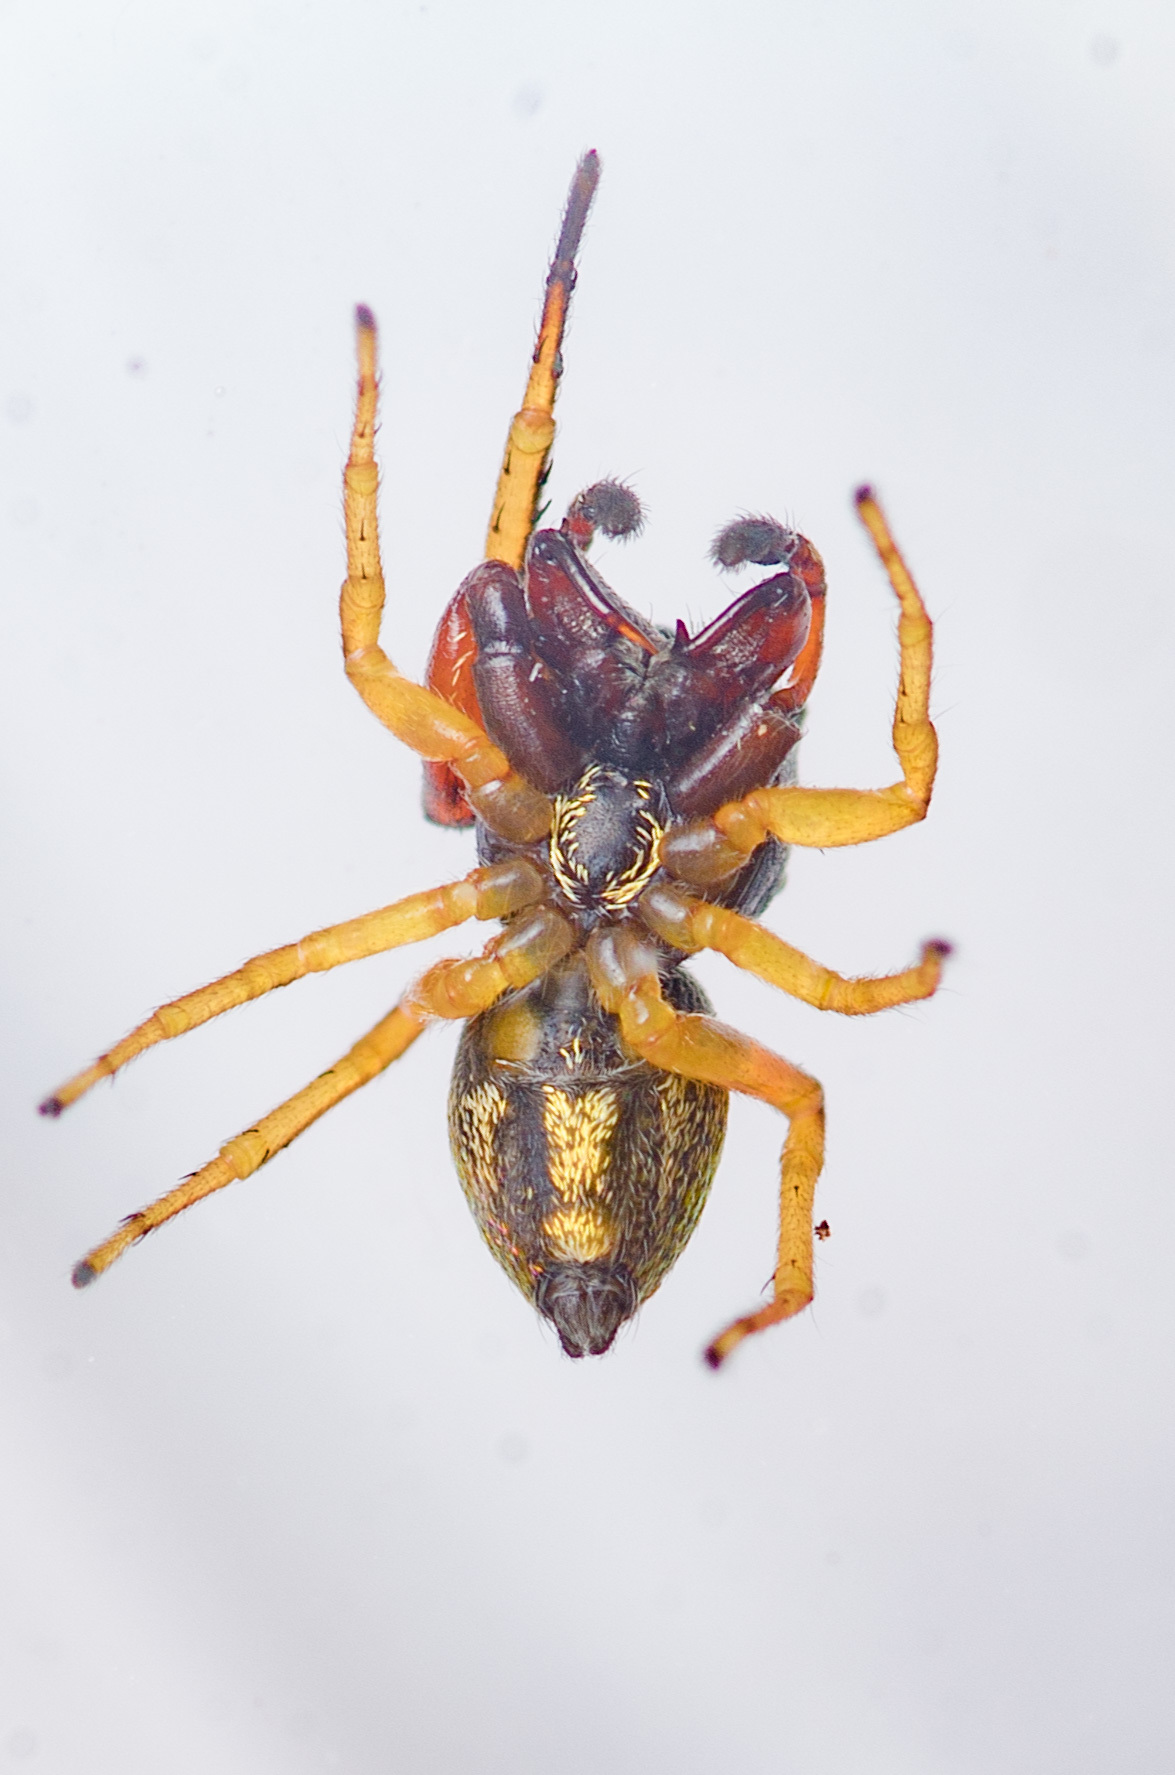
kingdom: Animalia
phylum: Arthropoda
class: Arachnida
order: Araneae
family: Salticidae
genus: Zygoballus
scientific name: Zygoballus rufipes
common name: Jumping spiders
